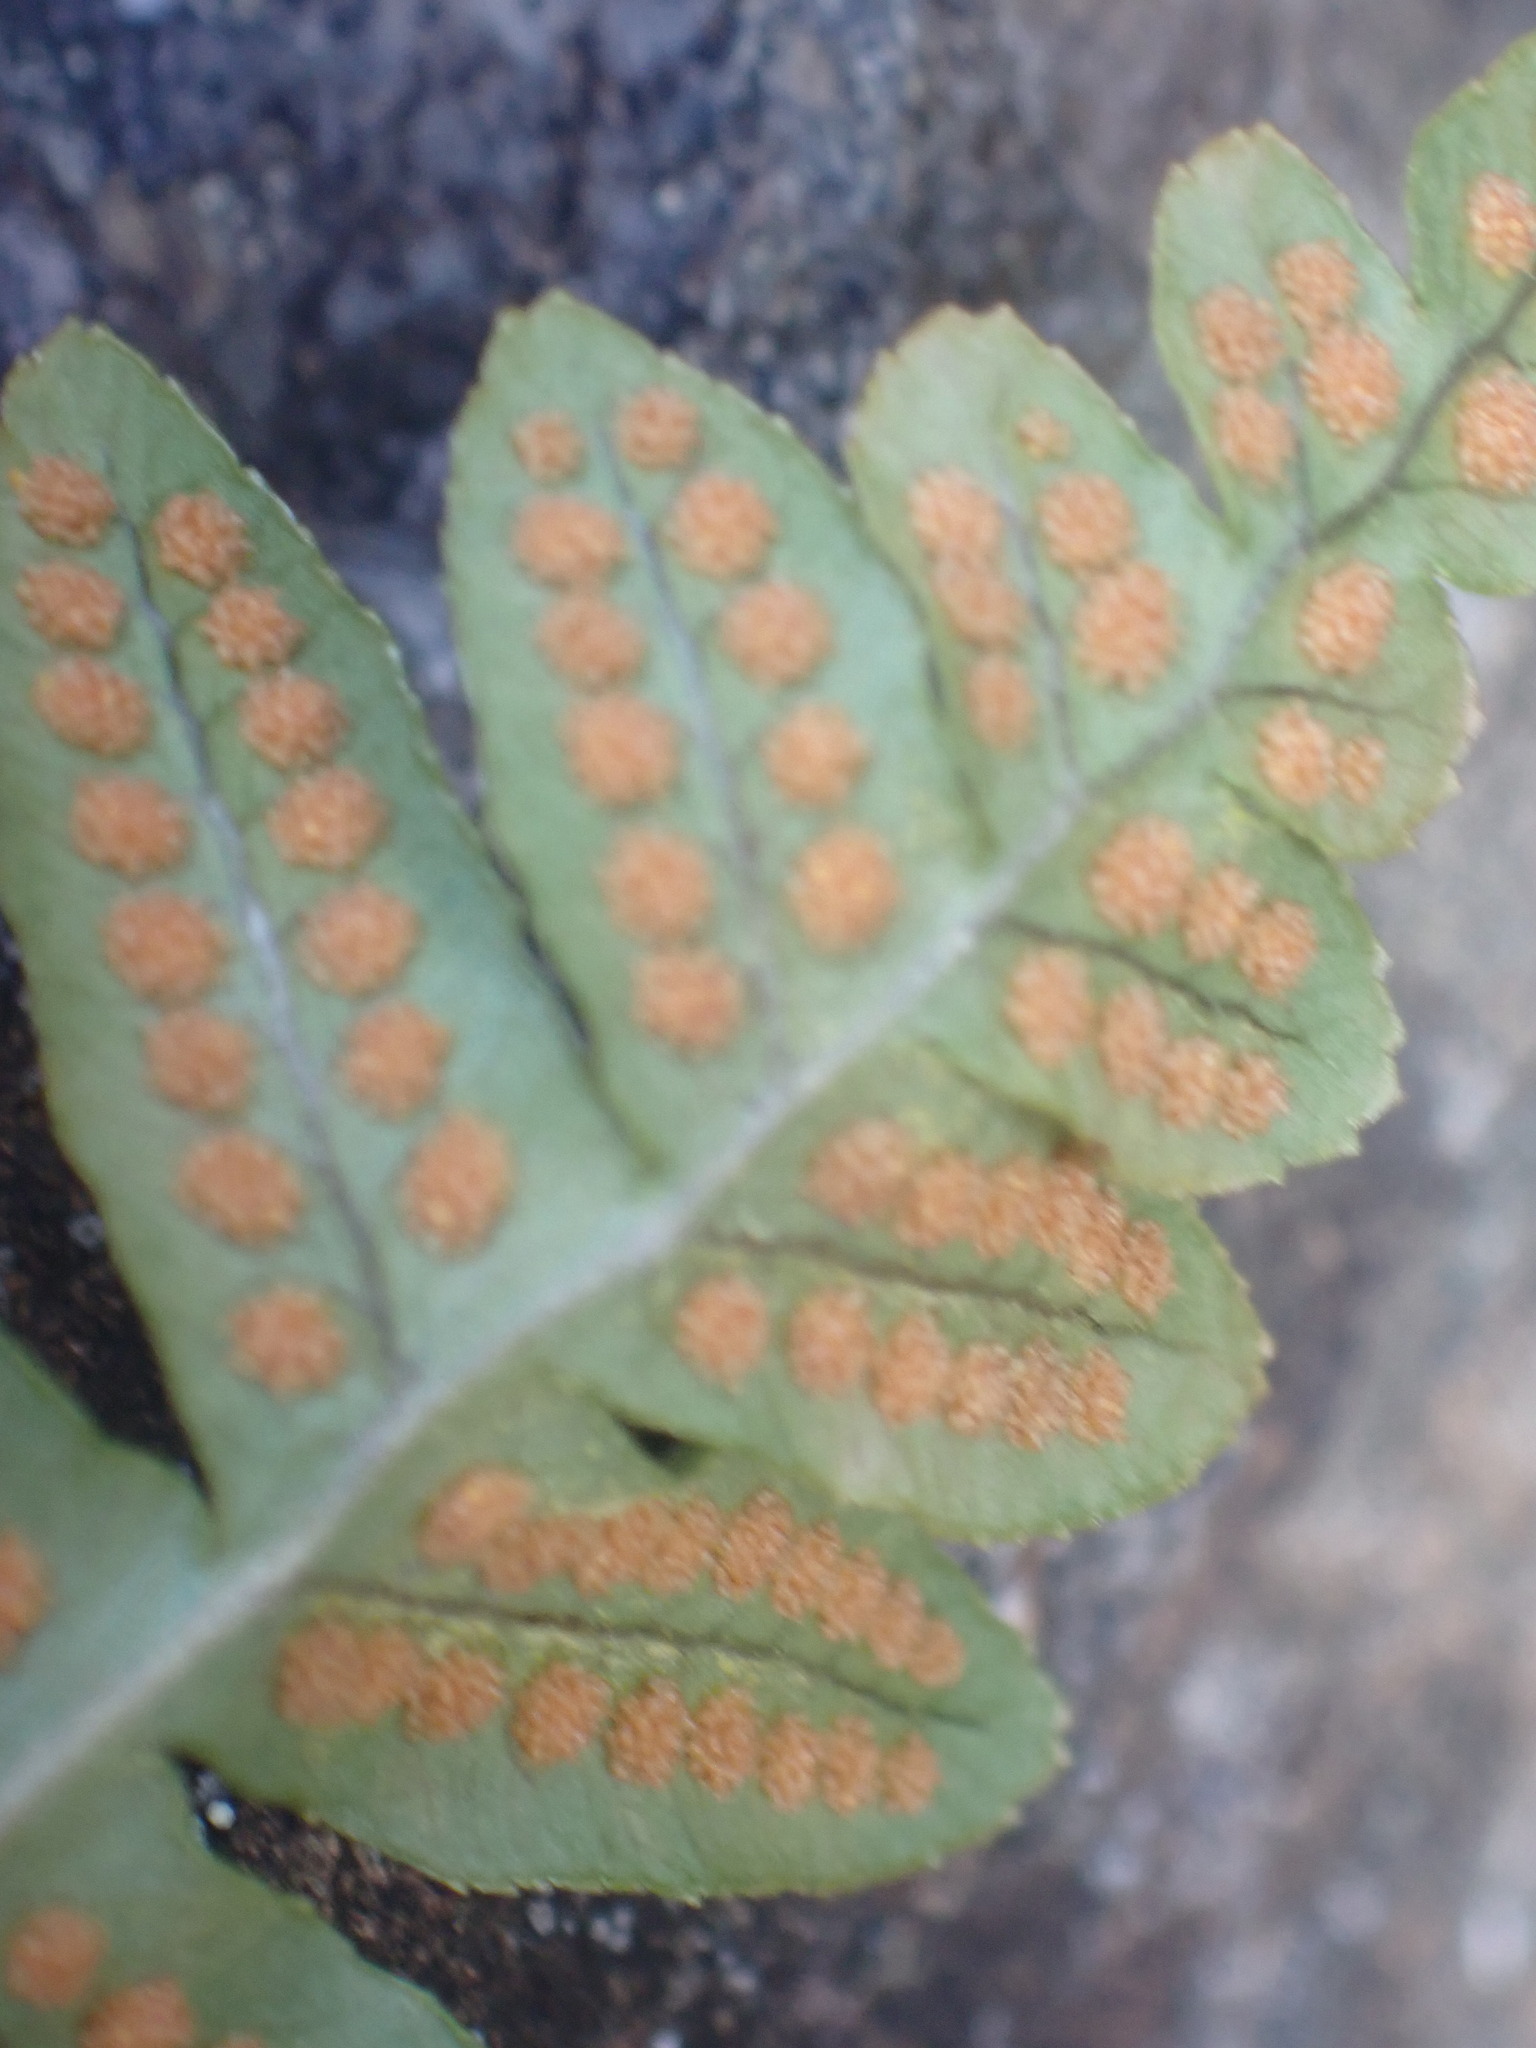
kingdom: Plantae
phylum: Tracheophyta
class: Polypodiopsida
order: Polypodiales
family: Polypodiaceae
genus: Polypodium
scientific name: Polypodium glycyrrhiza
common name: Licorice fern
